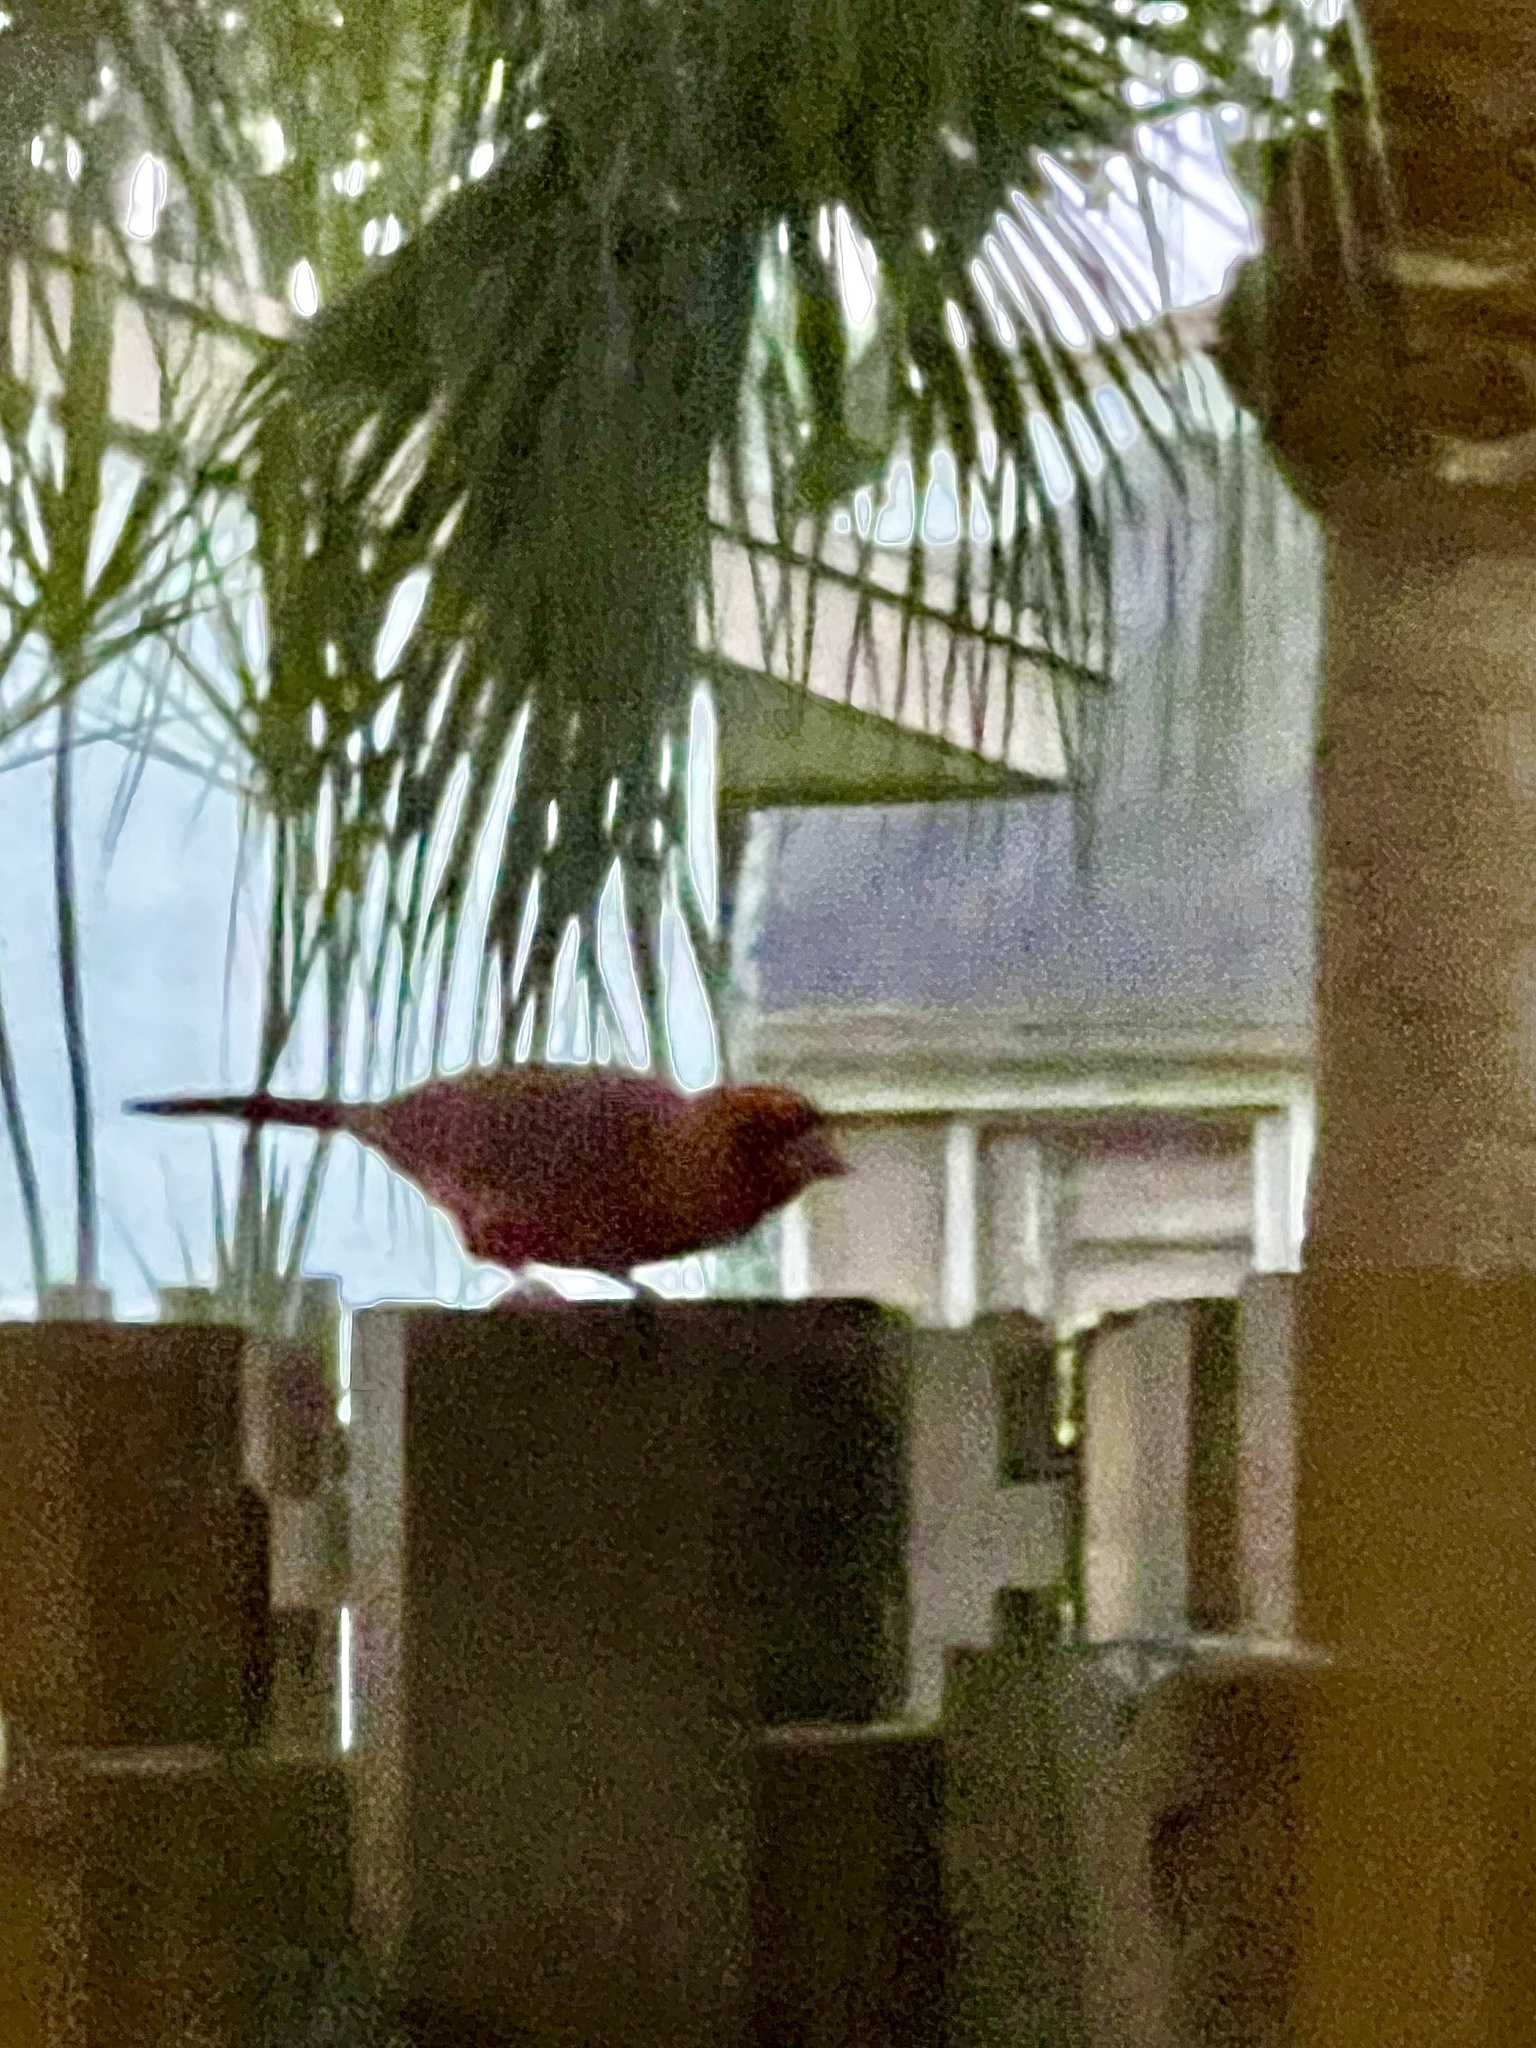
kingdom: Animalia
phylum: Chordata
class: Aves
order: Passeriformes
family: Cardinalidae
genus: Cardinalis
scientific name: Cardinalis cardinalis
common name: Northern cardinal
